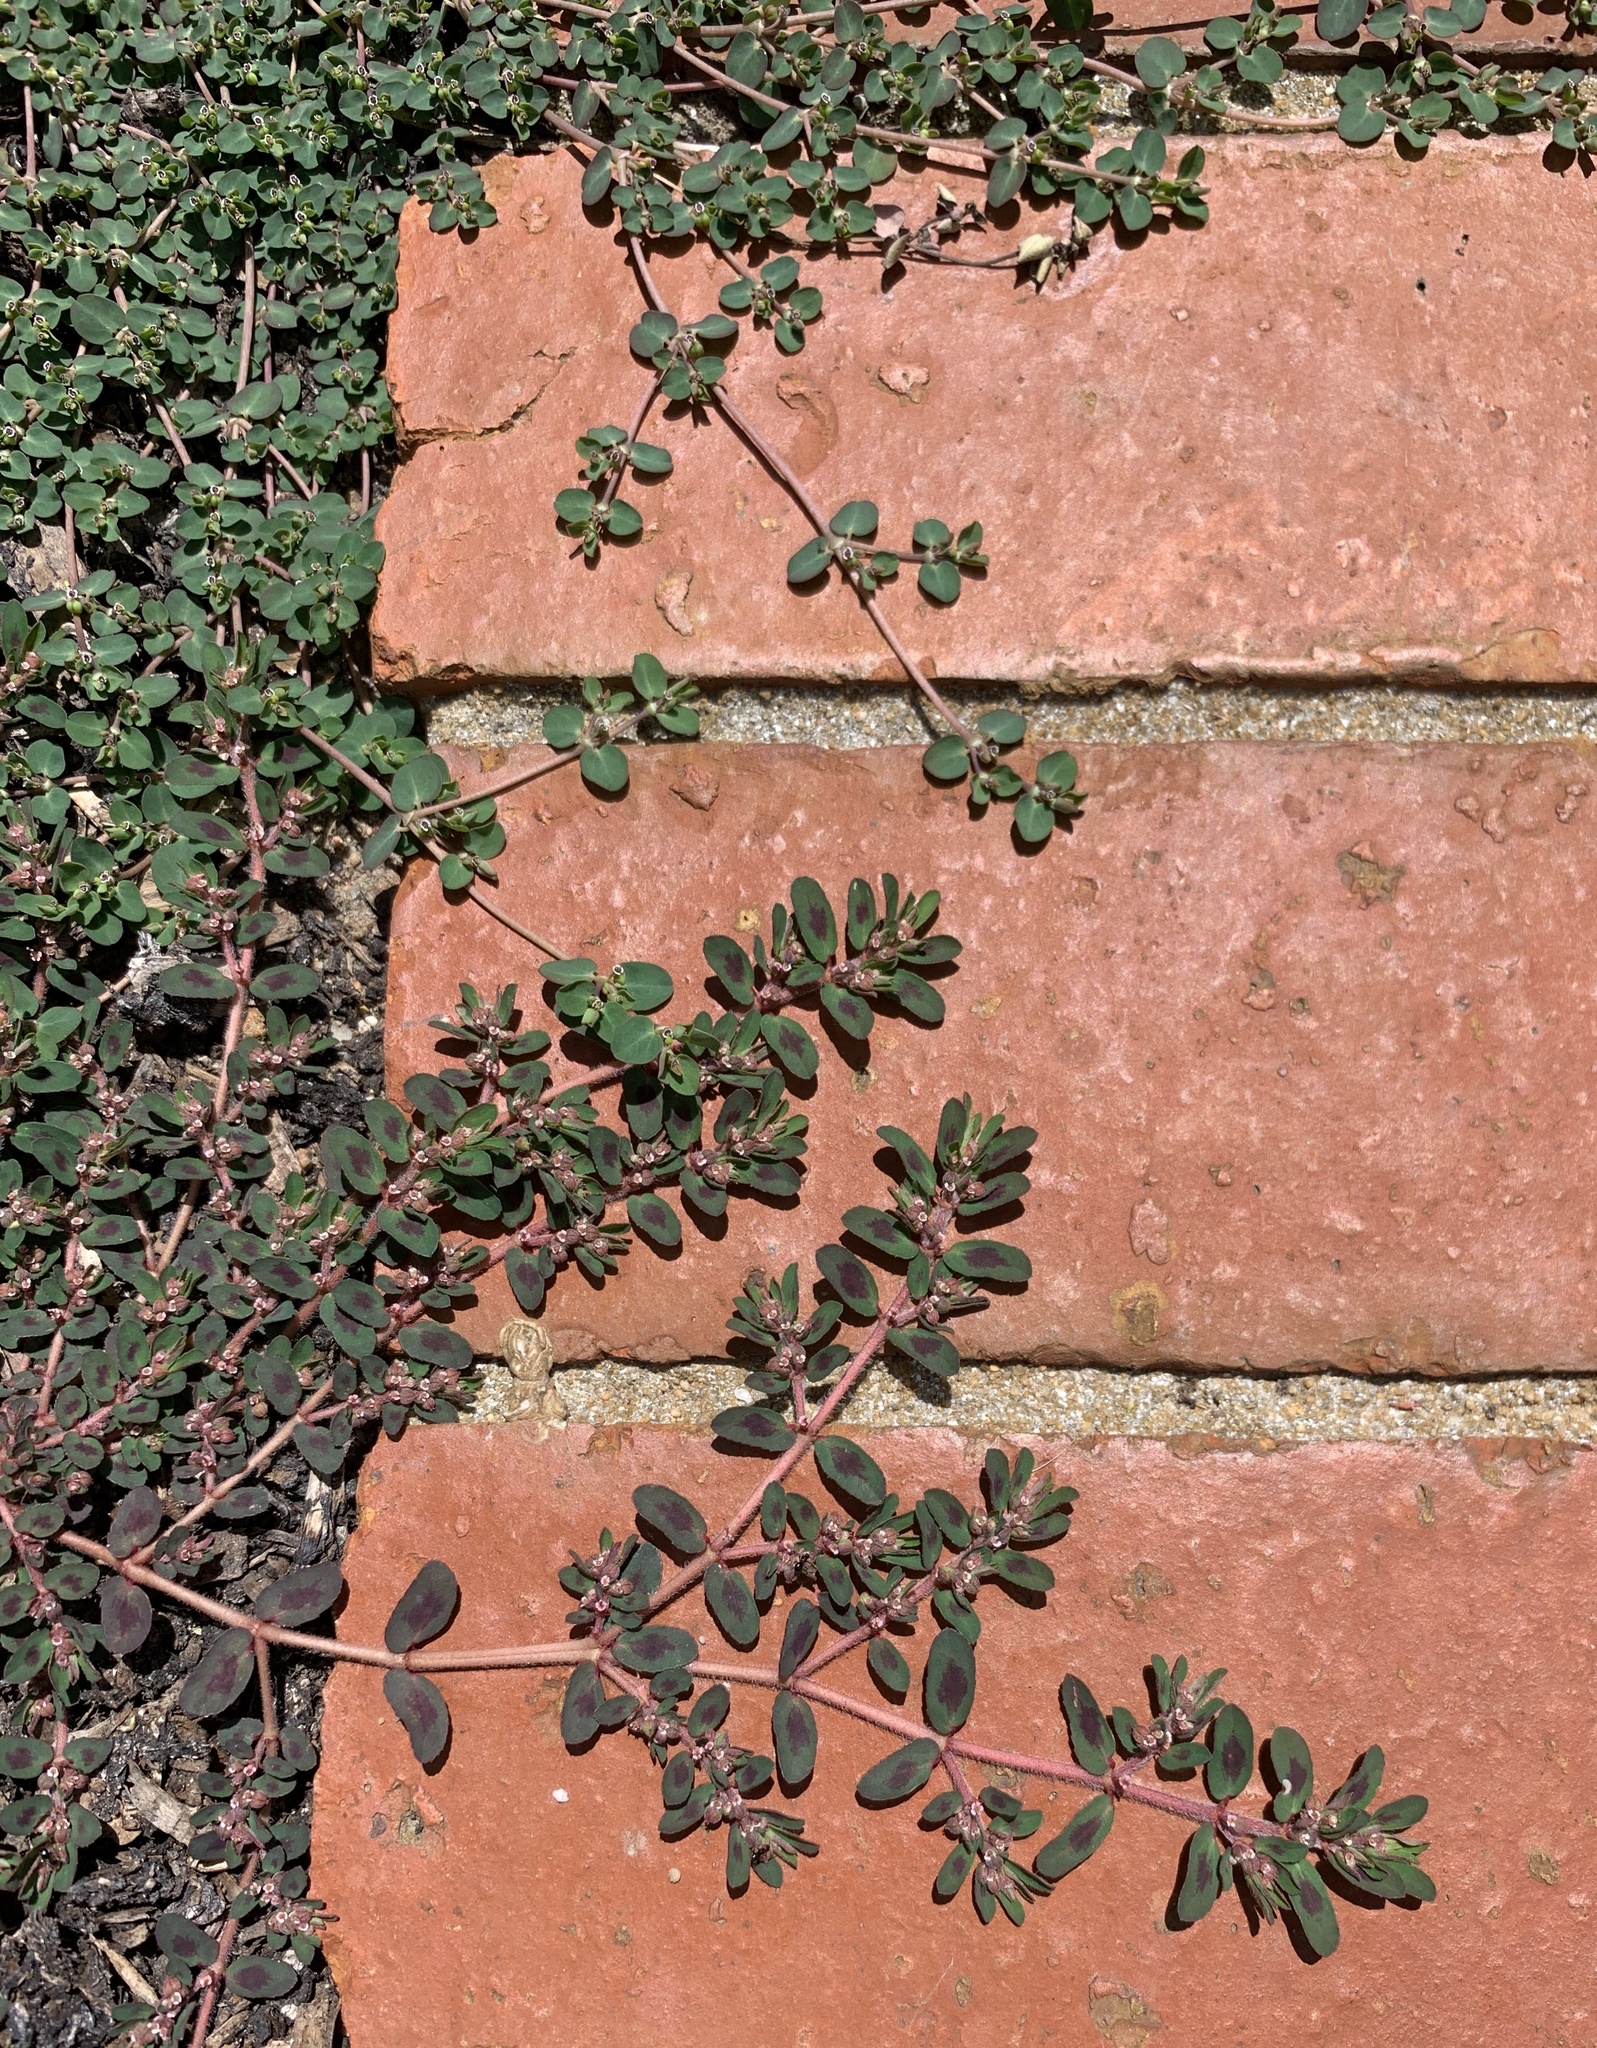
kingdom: Plantae
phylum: Tracheophyta
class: Magnoliopsida
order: Malpighiales
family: Euphorbiaceae
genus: Euphorbia
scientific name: Euphorbia maculata
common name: Spotted spurge
